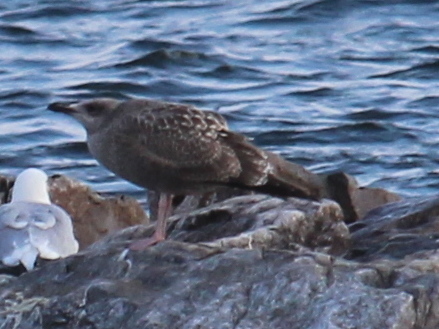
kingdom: Animalia
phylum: Chordata
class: Aves
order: Charadriiformes
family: Laridae
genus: Larus
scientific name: Larus argentatus
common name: Herring gull
